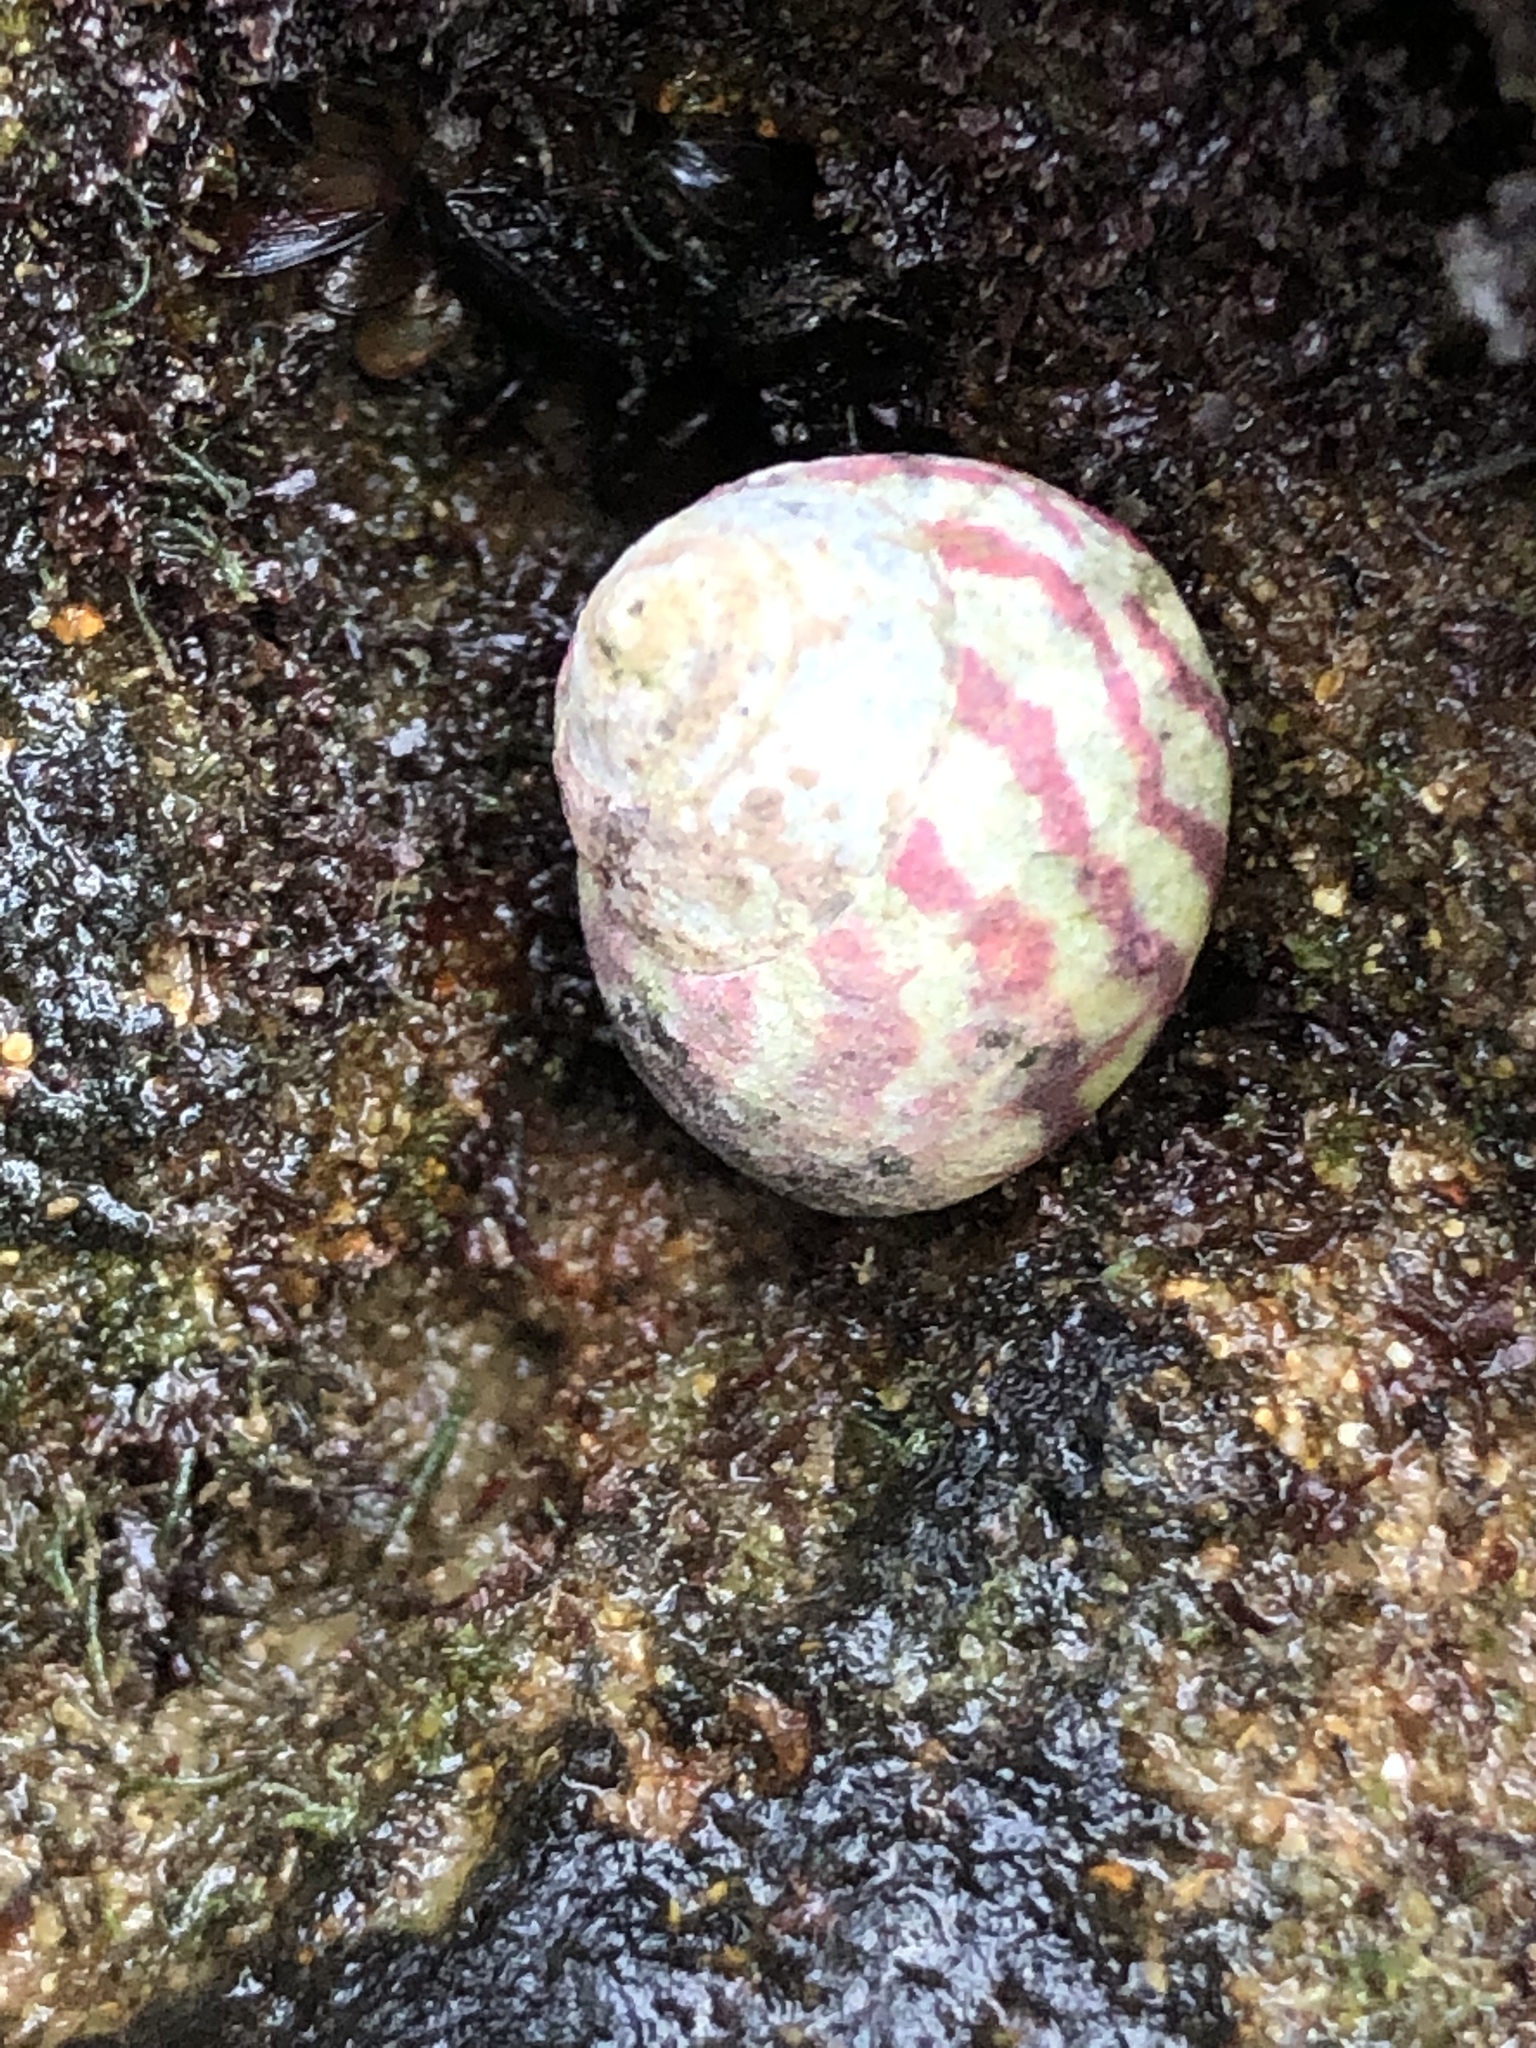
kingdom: Animalia
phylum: Mollusca
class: Gastropoda
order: Trochida
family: Trochidae
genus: Steromphala
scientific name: Steromphala umbilicalis
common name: Flat top shell
